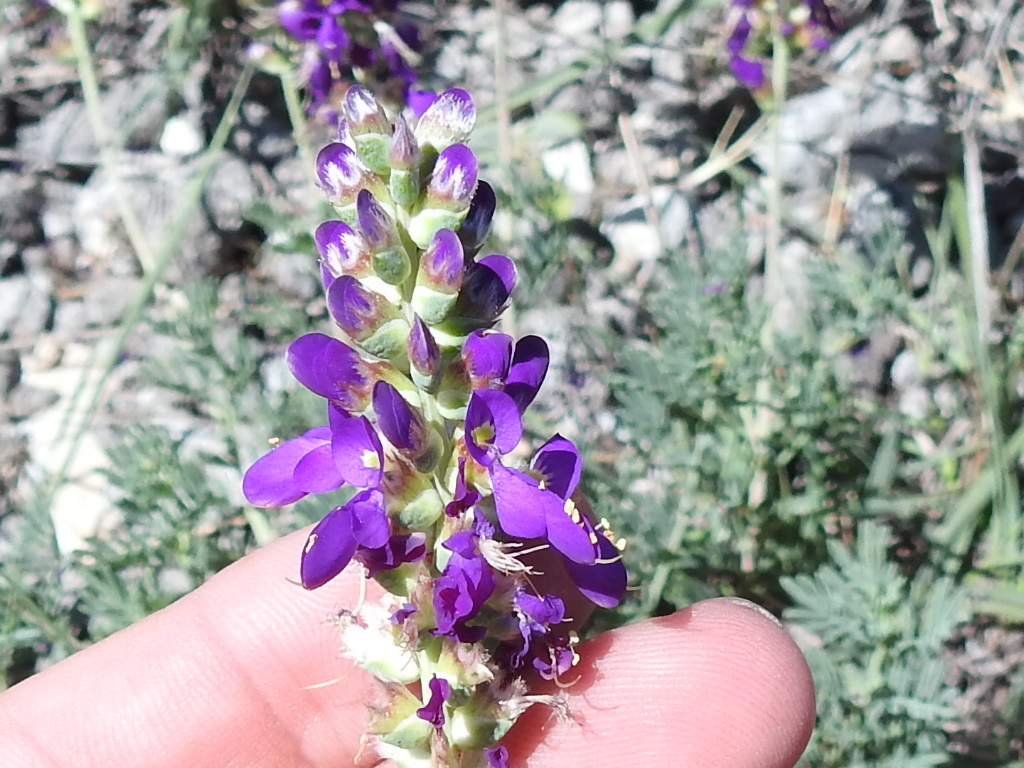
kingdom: Plantae
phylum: Tracheophyta
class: Magnoliopsida
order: Fabales
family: Fabaceae
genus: Dalea
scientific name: Dalea lasiathera
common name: Purple prairie-clover
